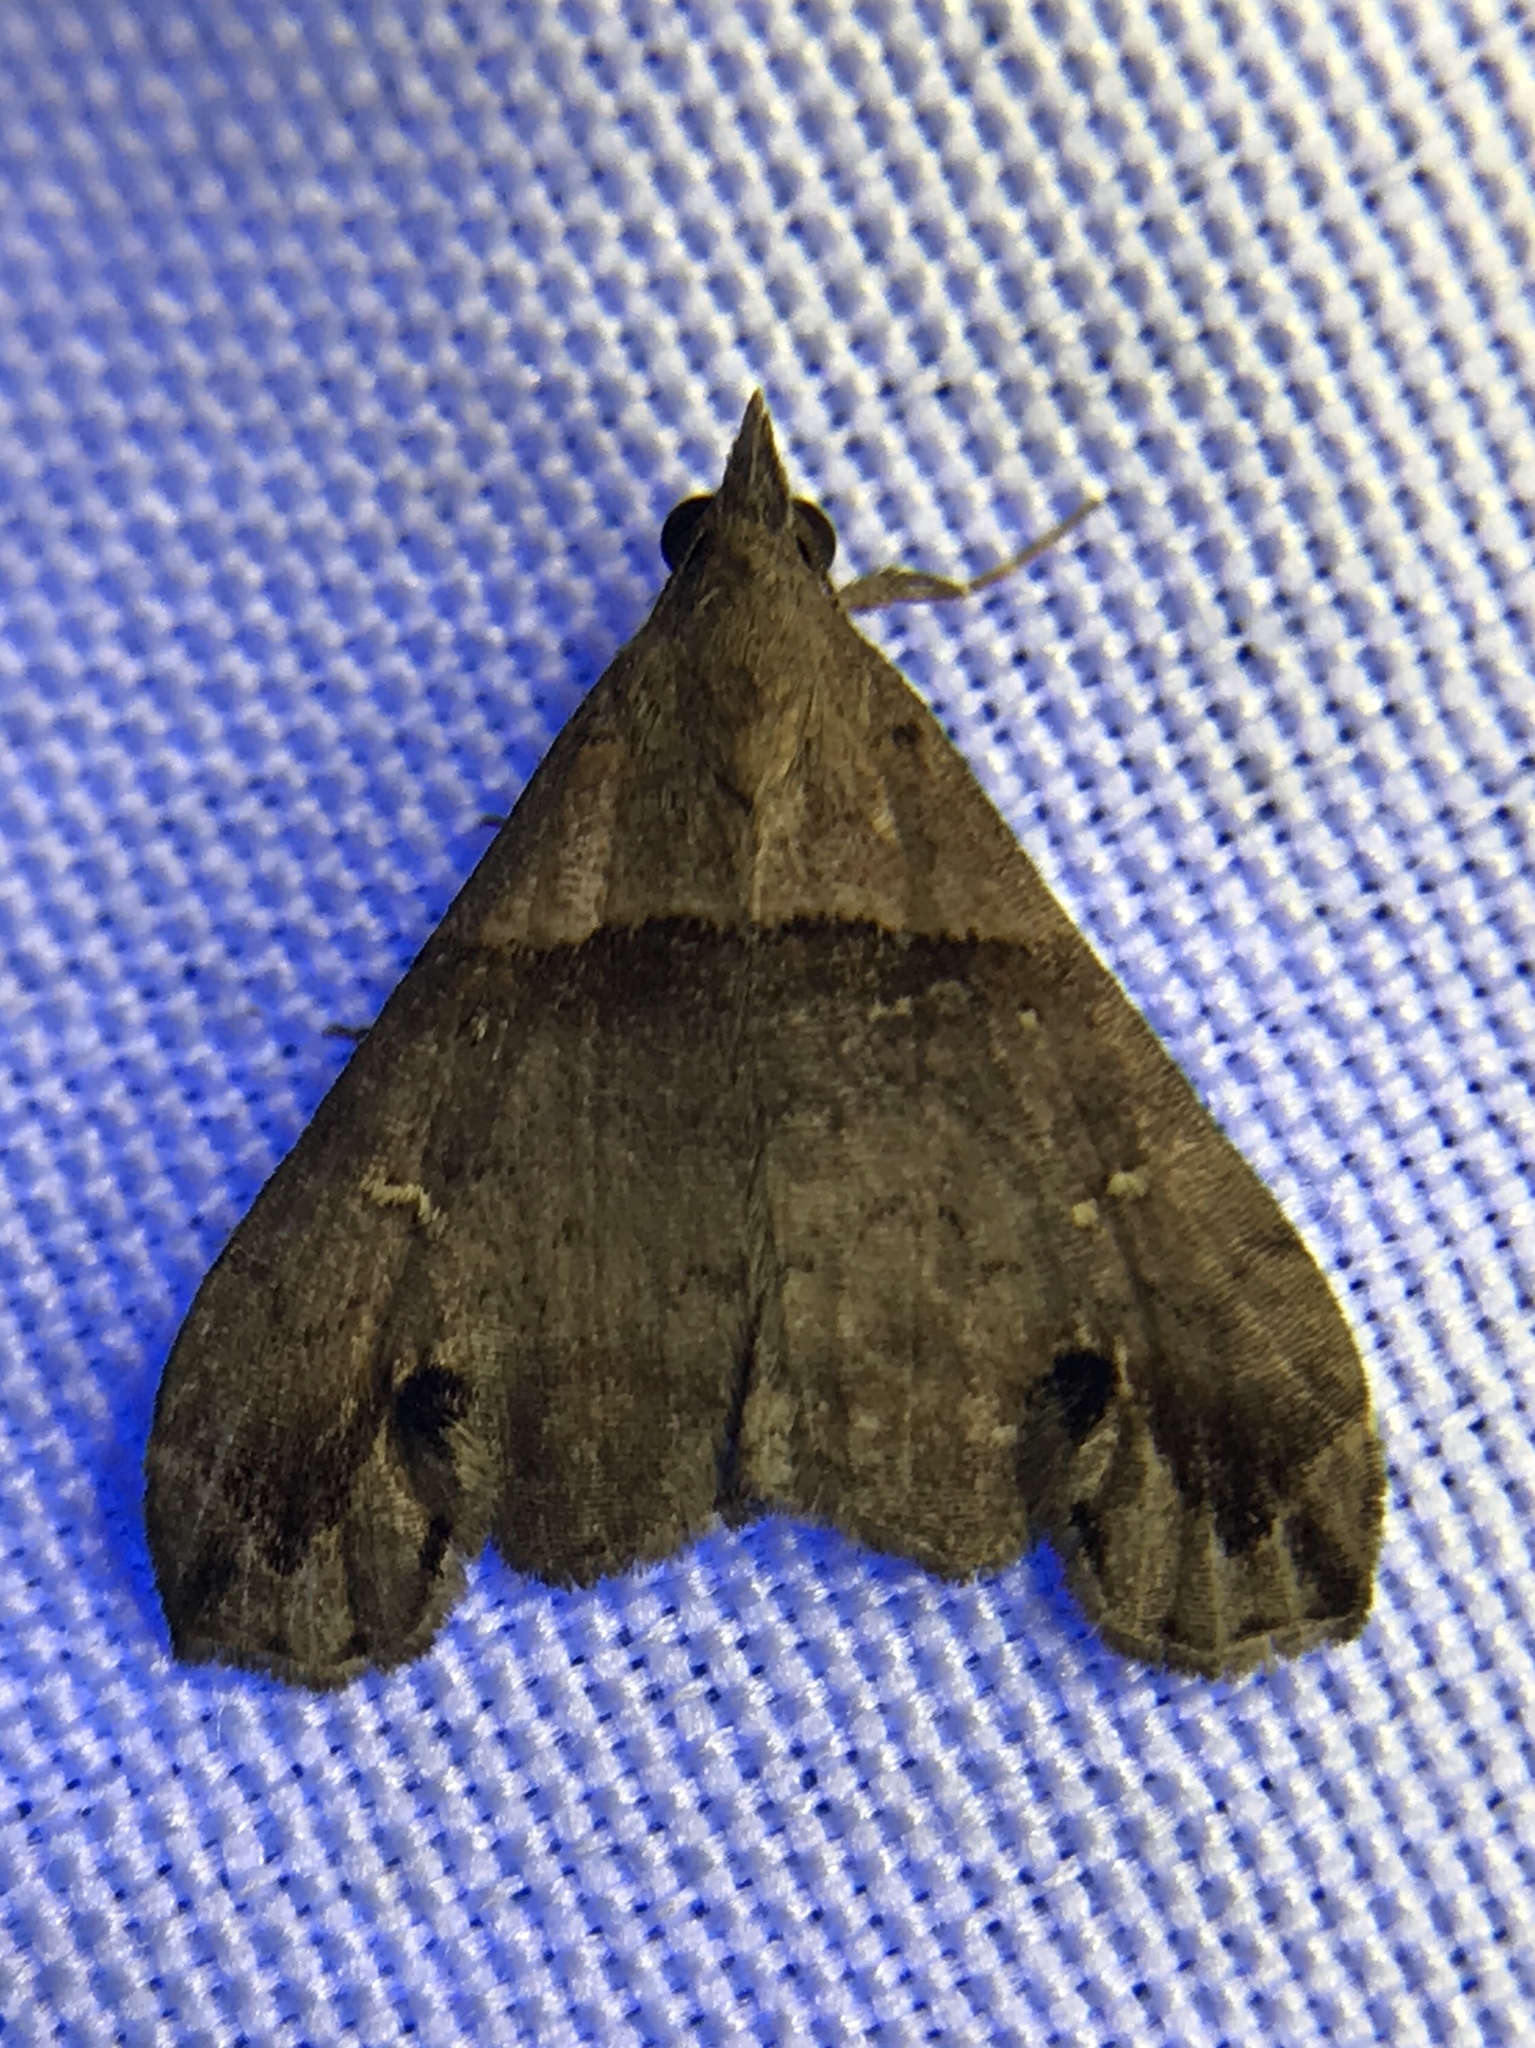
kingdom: Animalia
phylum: Arthropoda
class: Insecta
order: Lepidoptera
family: Erebidae
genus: Lascoria
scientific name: Lascoria ambigualis
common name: Ambiguous moth
